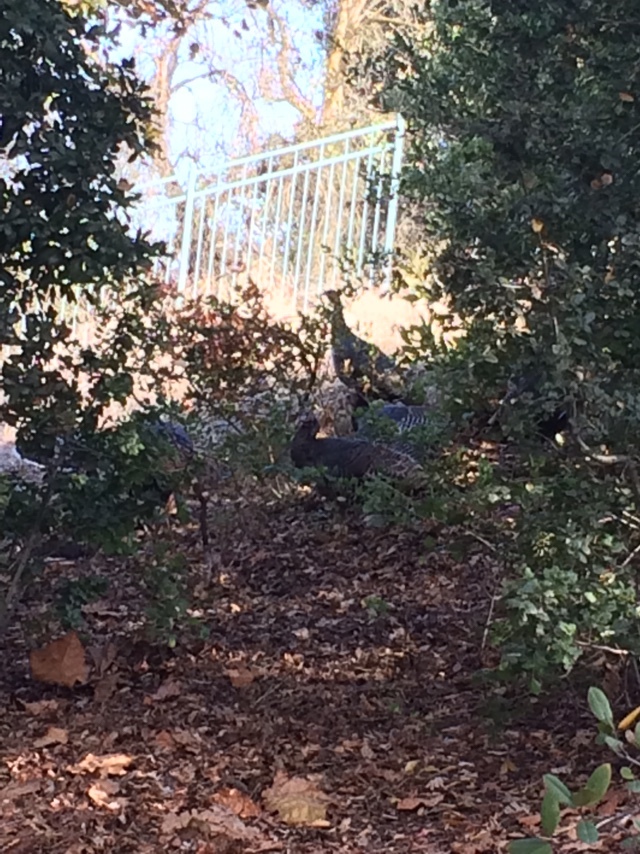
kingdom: Animalia
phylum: Chordata
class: Aves
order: Galliformes
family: Phasianidae
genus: Meleagris
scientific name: Meleagris gallopavo
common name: Wild turkey
